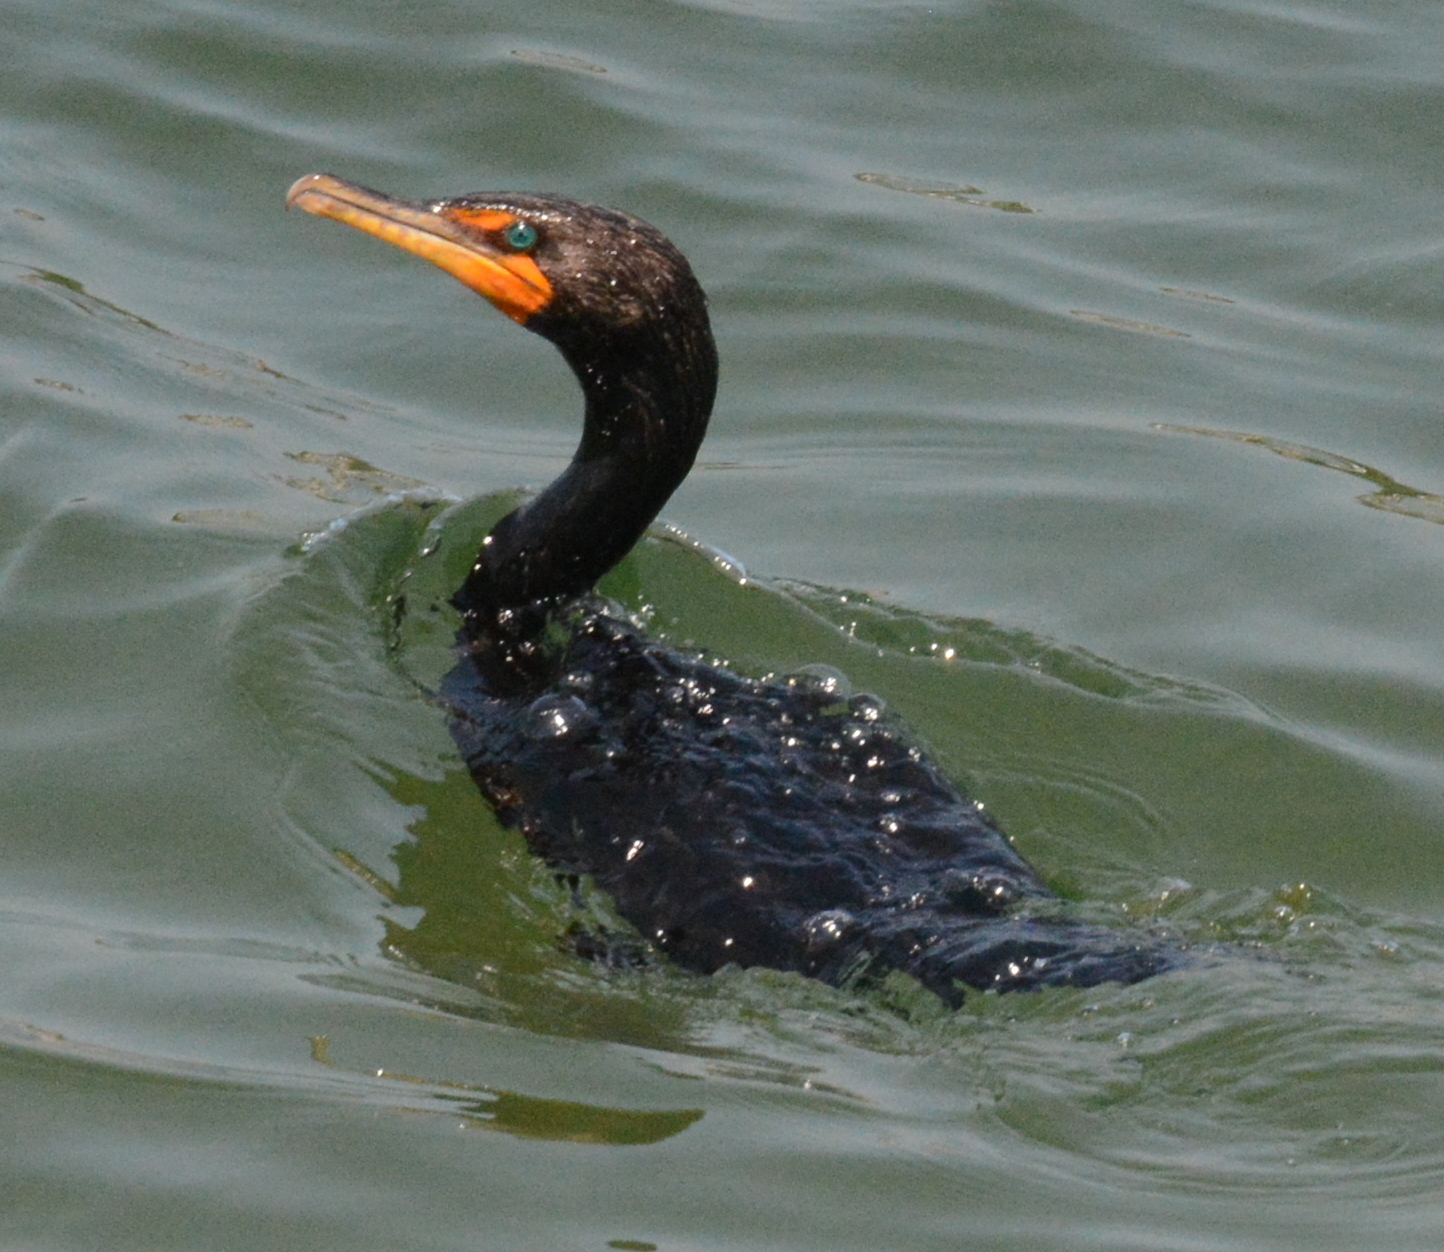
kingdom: Animalia
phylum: Chordata
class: Aves
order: Suliformes
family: Phalacrocoracidae
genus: Phalacrocorax
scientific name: Phalacrocorax auritus
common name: Double-crested cormorant
